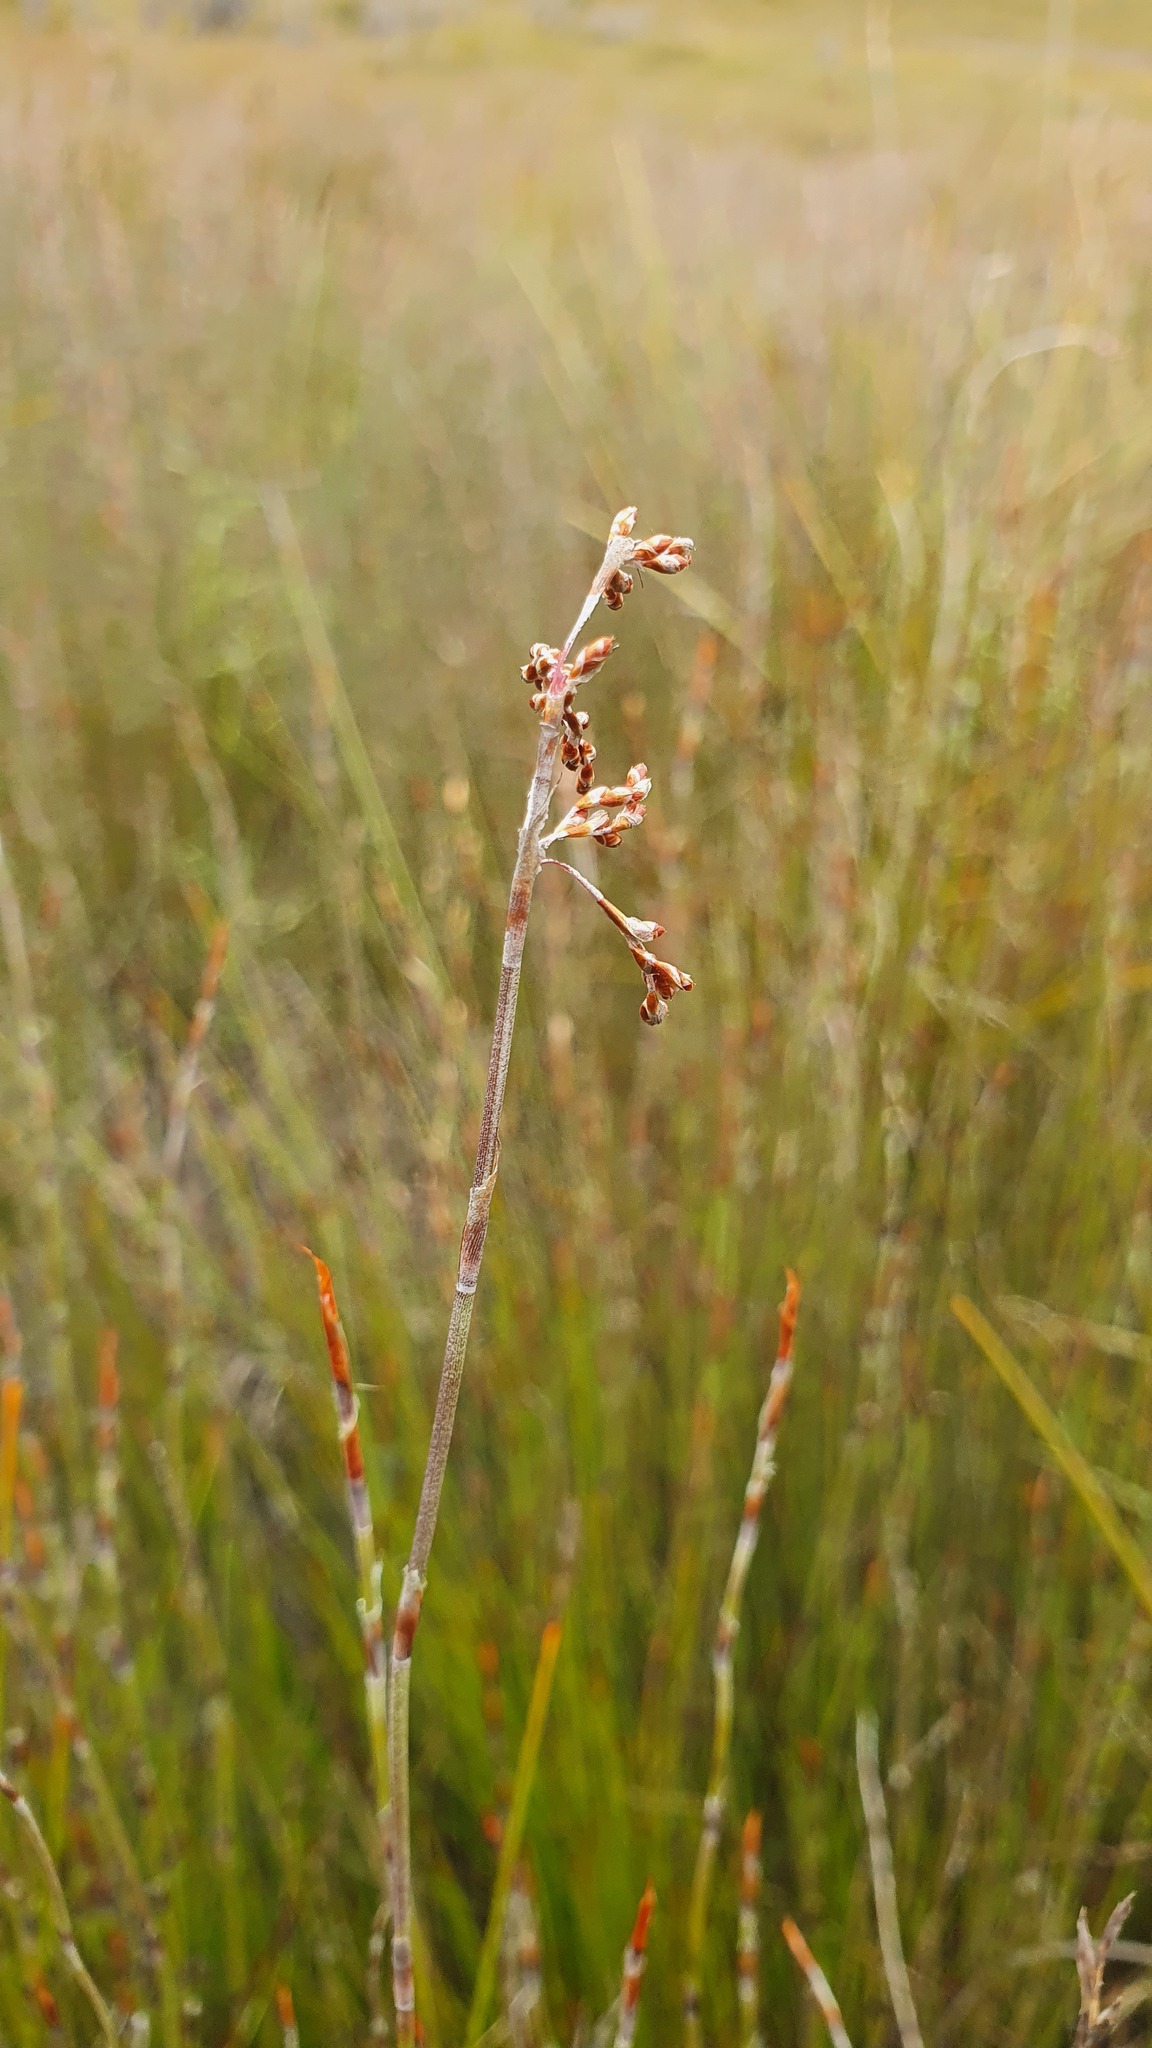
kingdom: Plantae
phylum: Tracheophyta
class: Liliopsida
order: Poales
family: Restionaceae
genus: Leptocarpus
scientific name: Leptocarpus tenax
